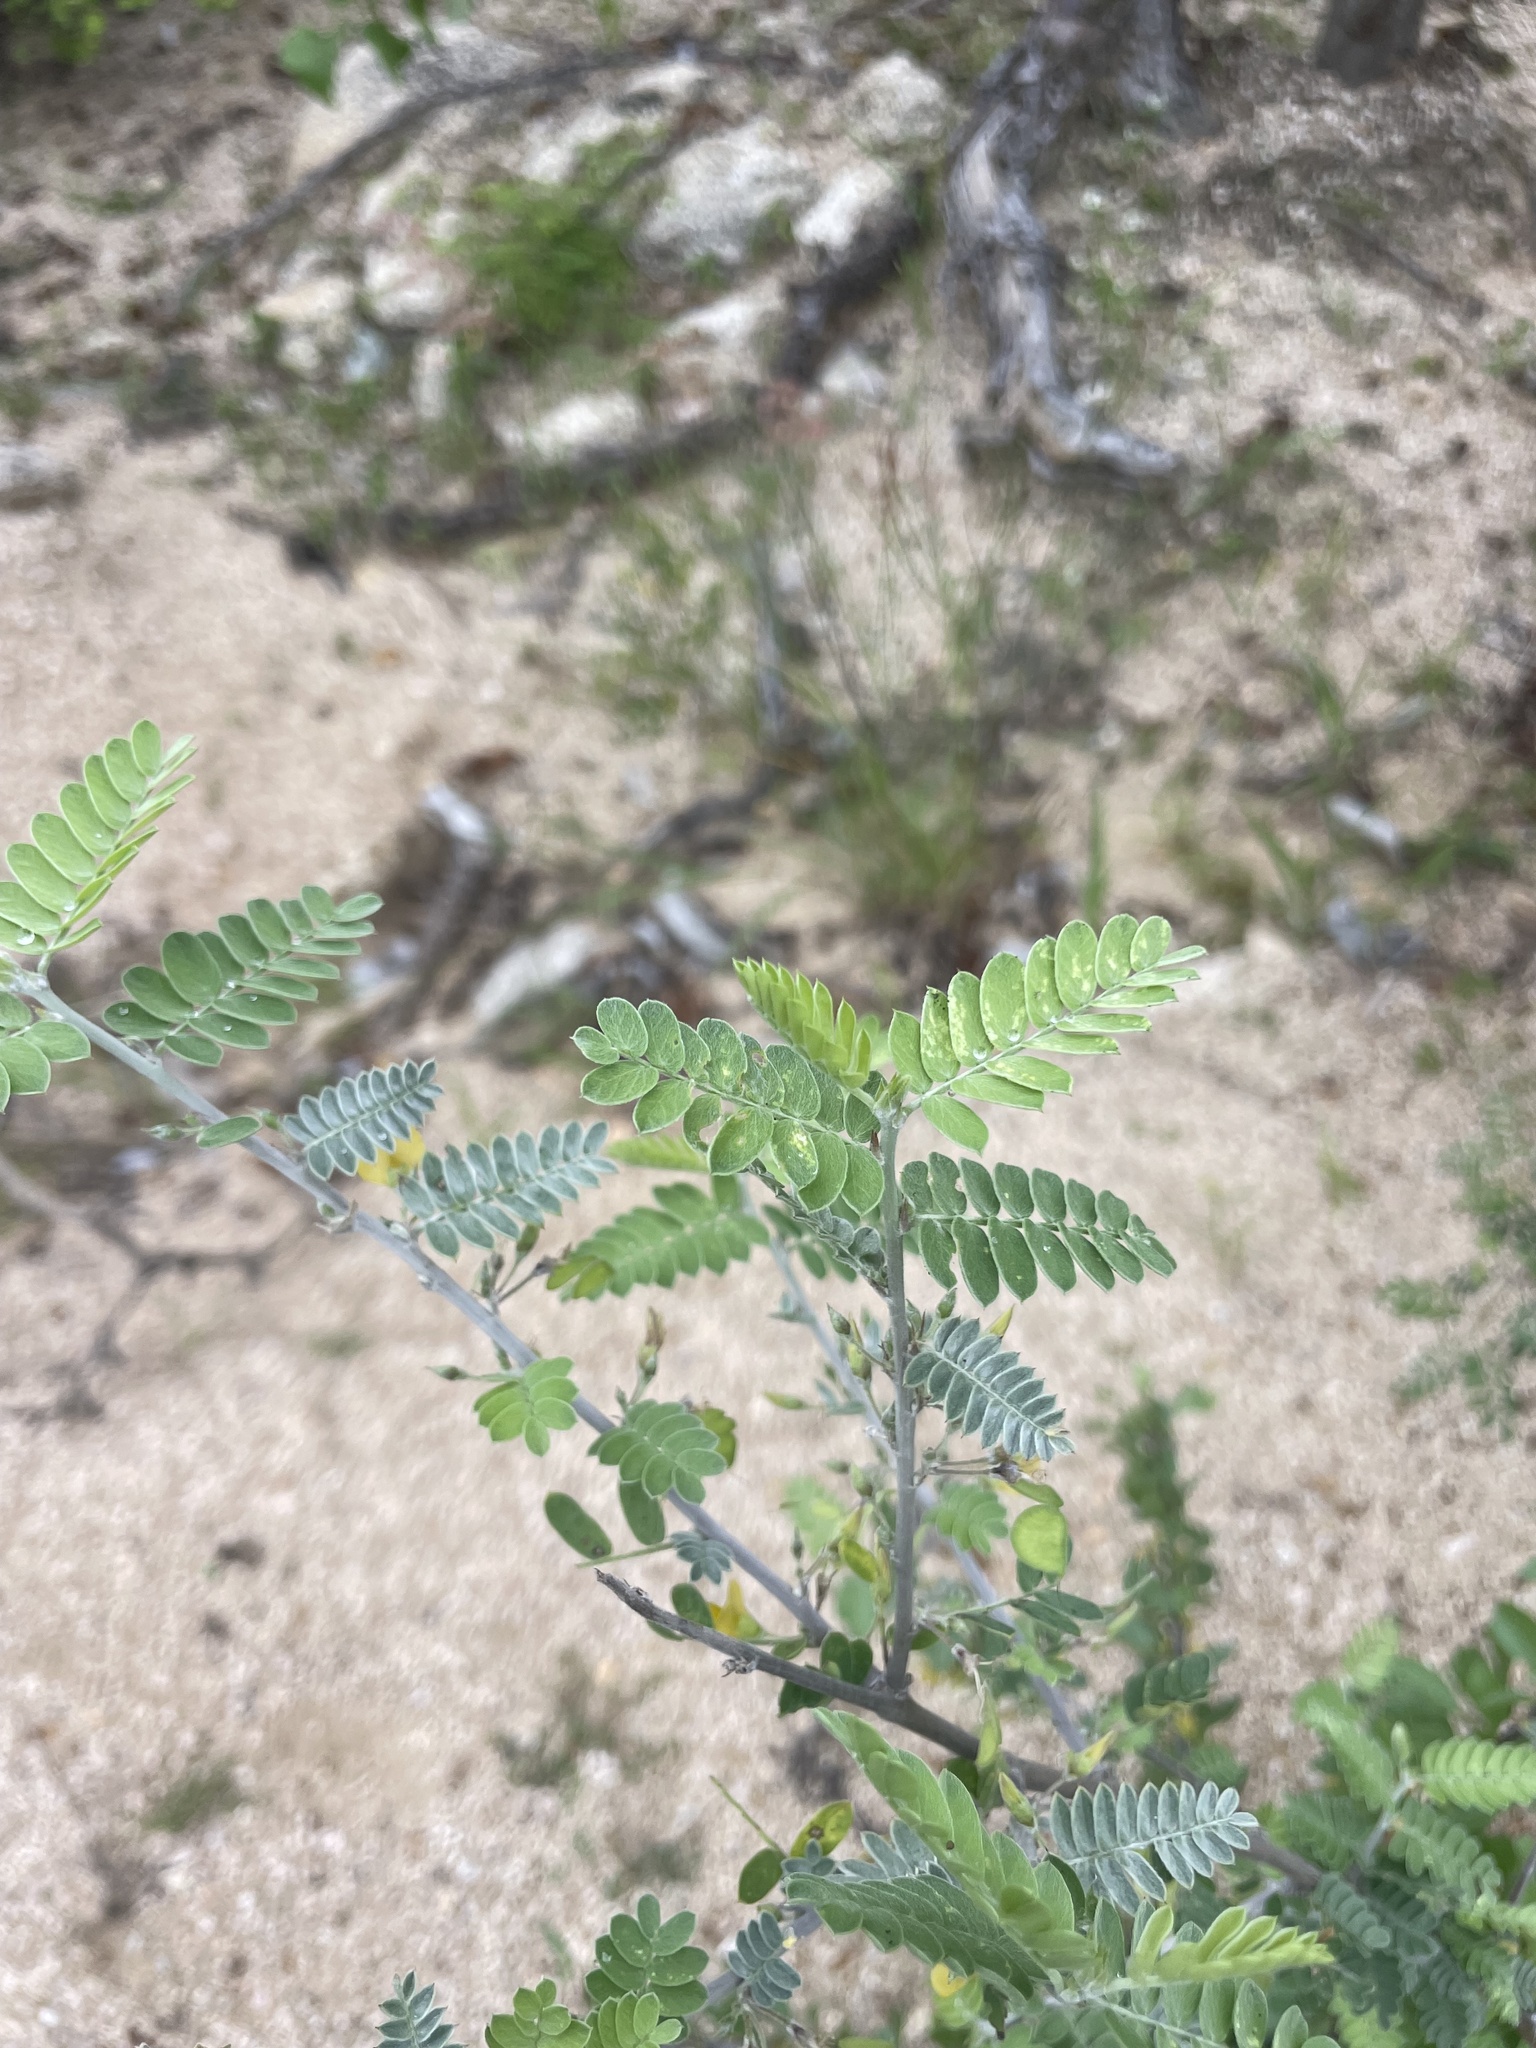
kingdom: Plantae
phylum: Tracheophyta
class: Magnoliopsida
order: Fabales
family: Fabaceae
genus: Ctenodon
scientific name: Ctenodon vigil
